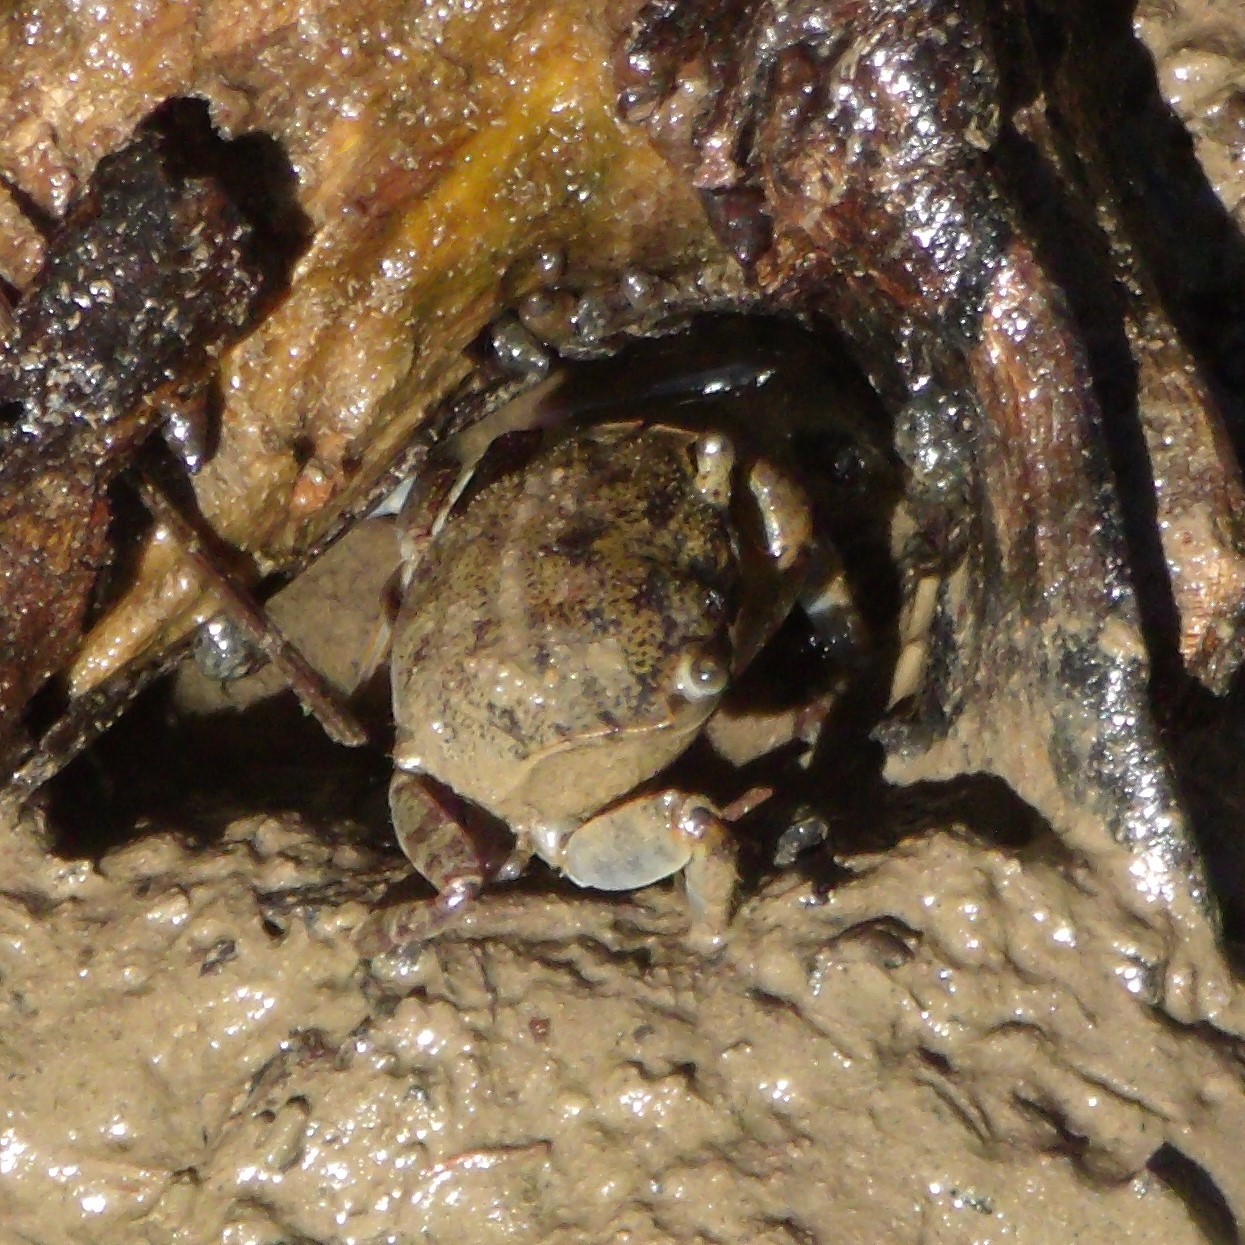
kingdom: Animalia
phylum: Arthropoda
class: Malacostraca
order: Decapoda
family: Varunidae
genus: Austrohelice
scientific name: Austrohelice crassa
